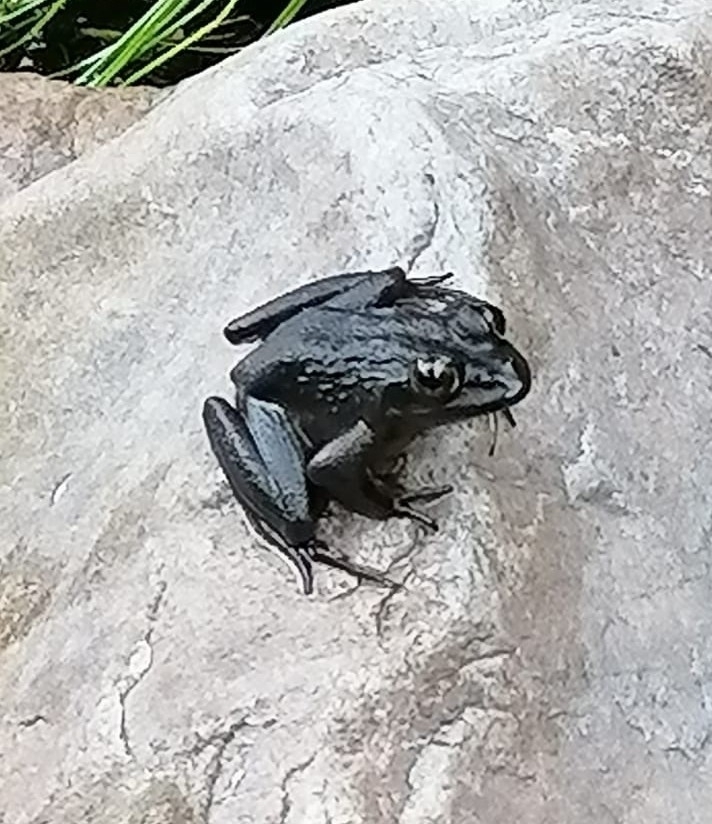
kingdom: Animalia
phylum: Chordata
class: Amphibia
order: Anura
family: Pyxicephalidae
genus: Amietia
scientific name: Amietia fuscigula
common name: Cape rana
